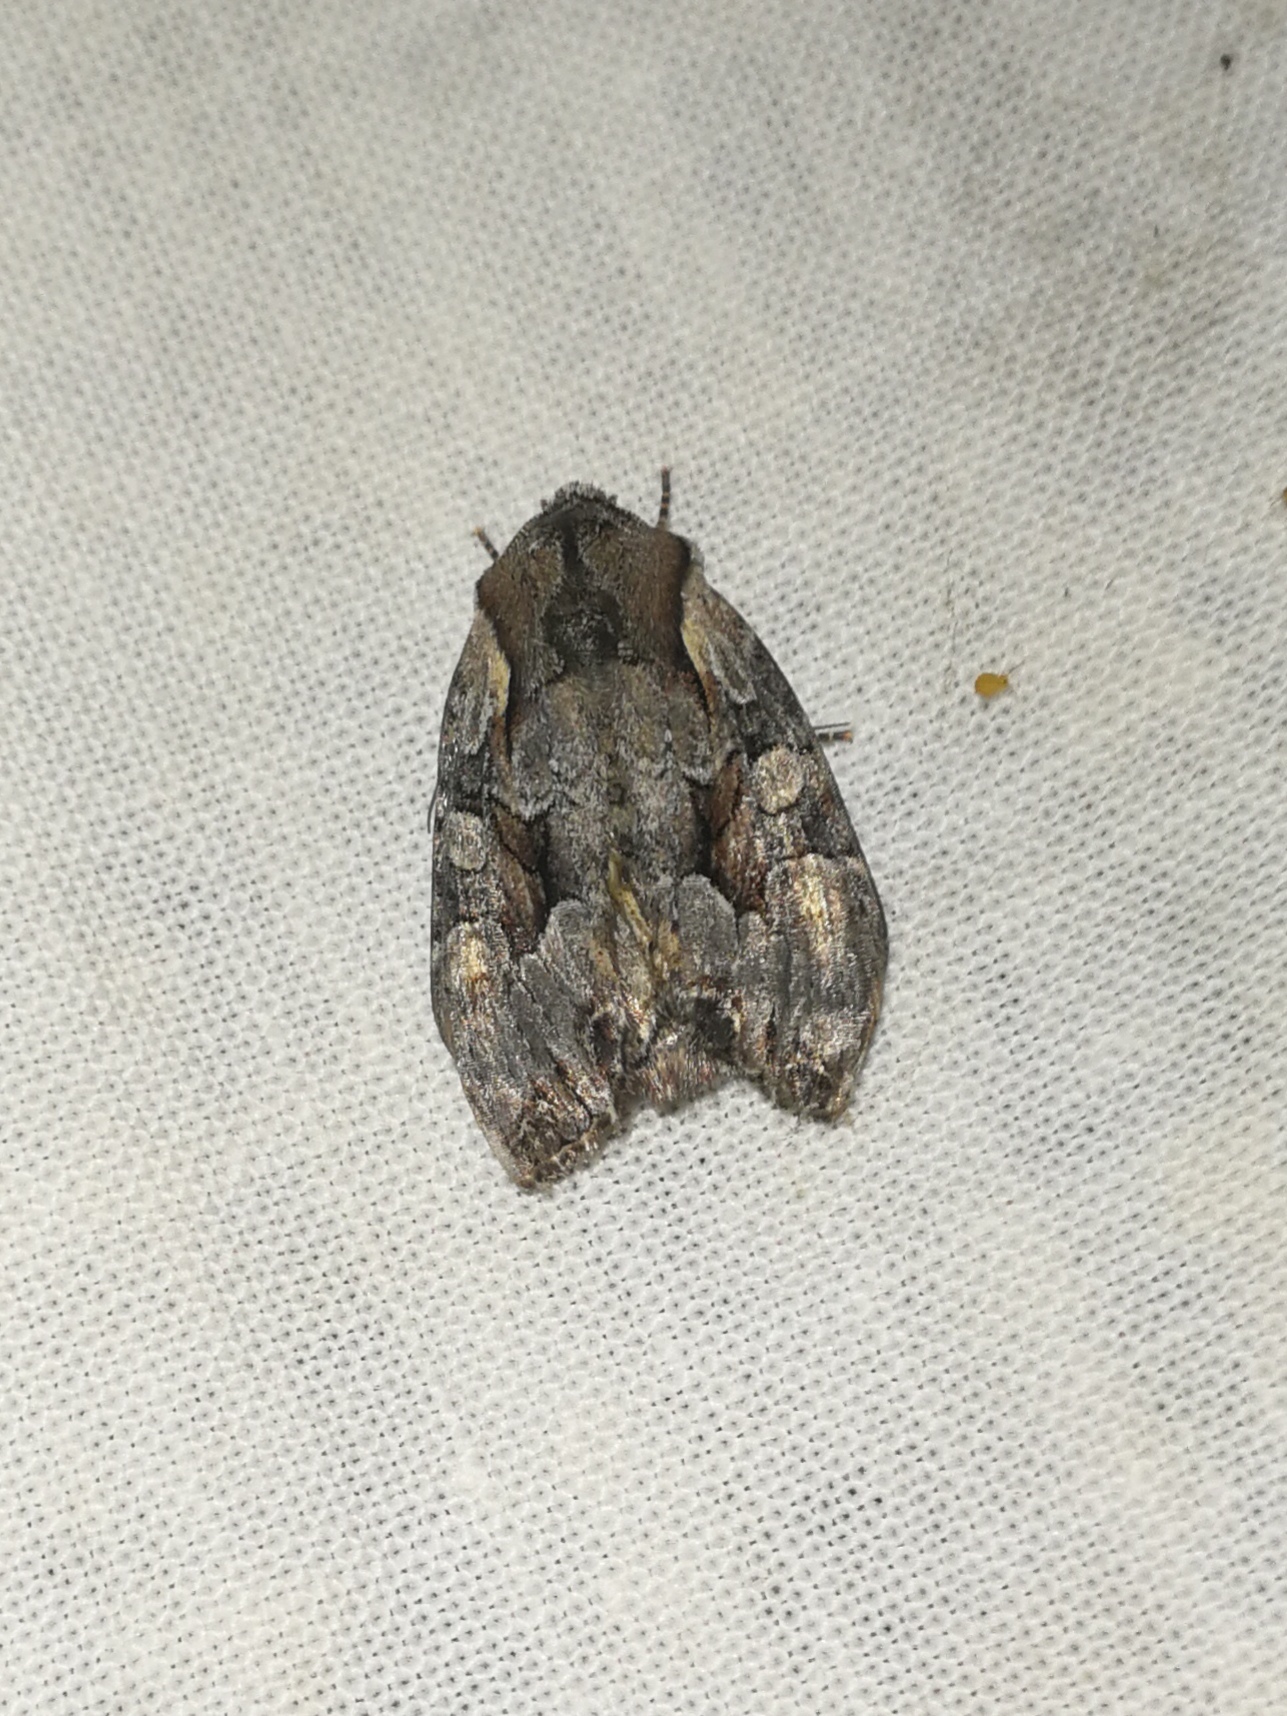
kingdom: Animalia
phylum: Arthropoda
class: Insecta
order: Lepidoptera
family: Noctuidae
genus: Lacanobia
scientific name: Lacanobia w-latinum
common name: Light brocade
